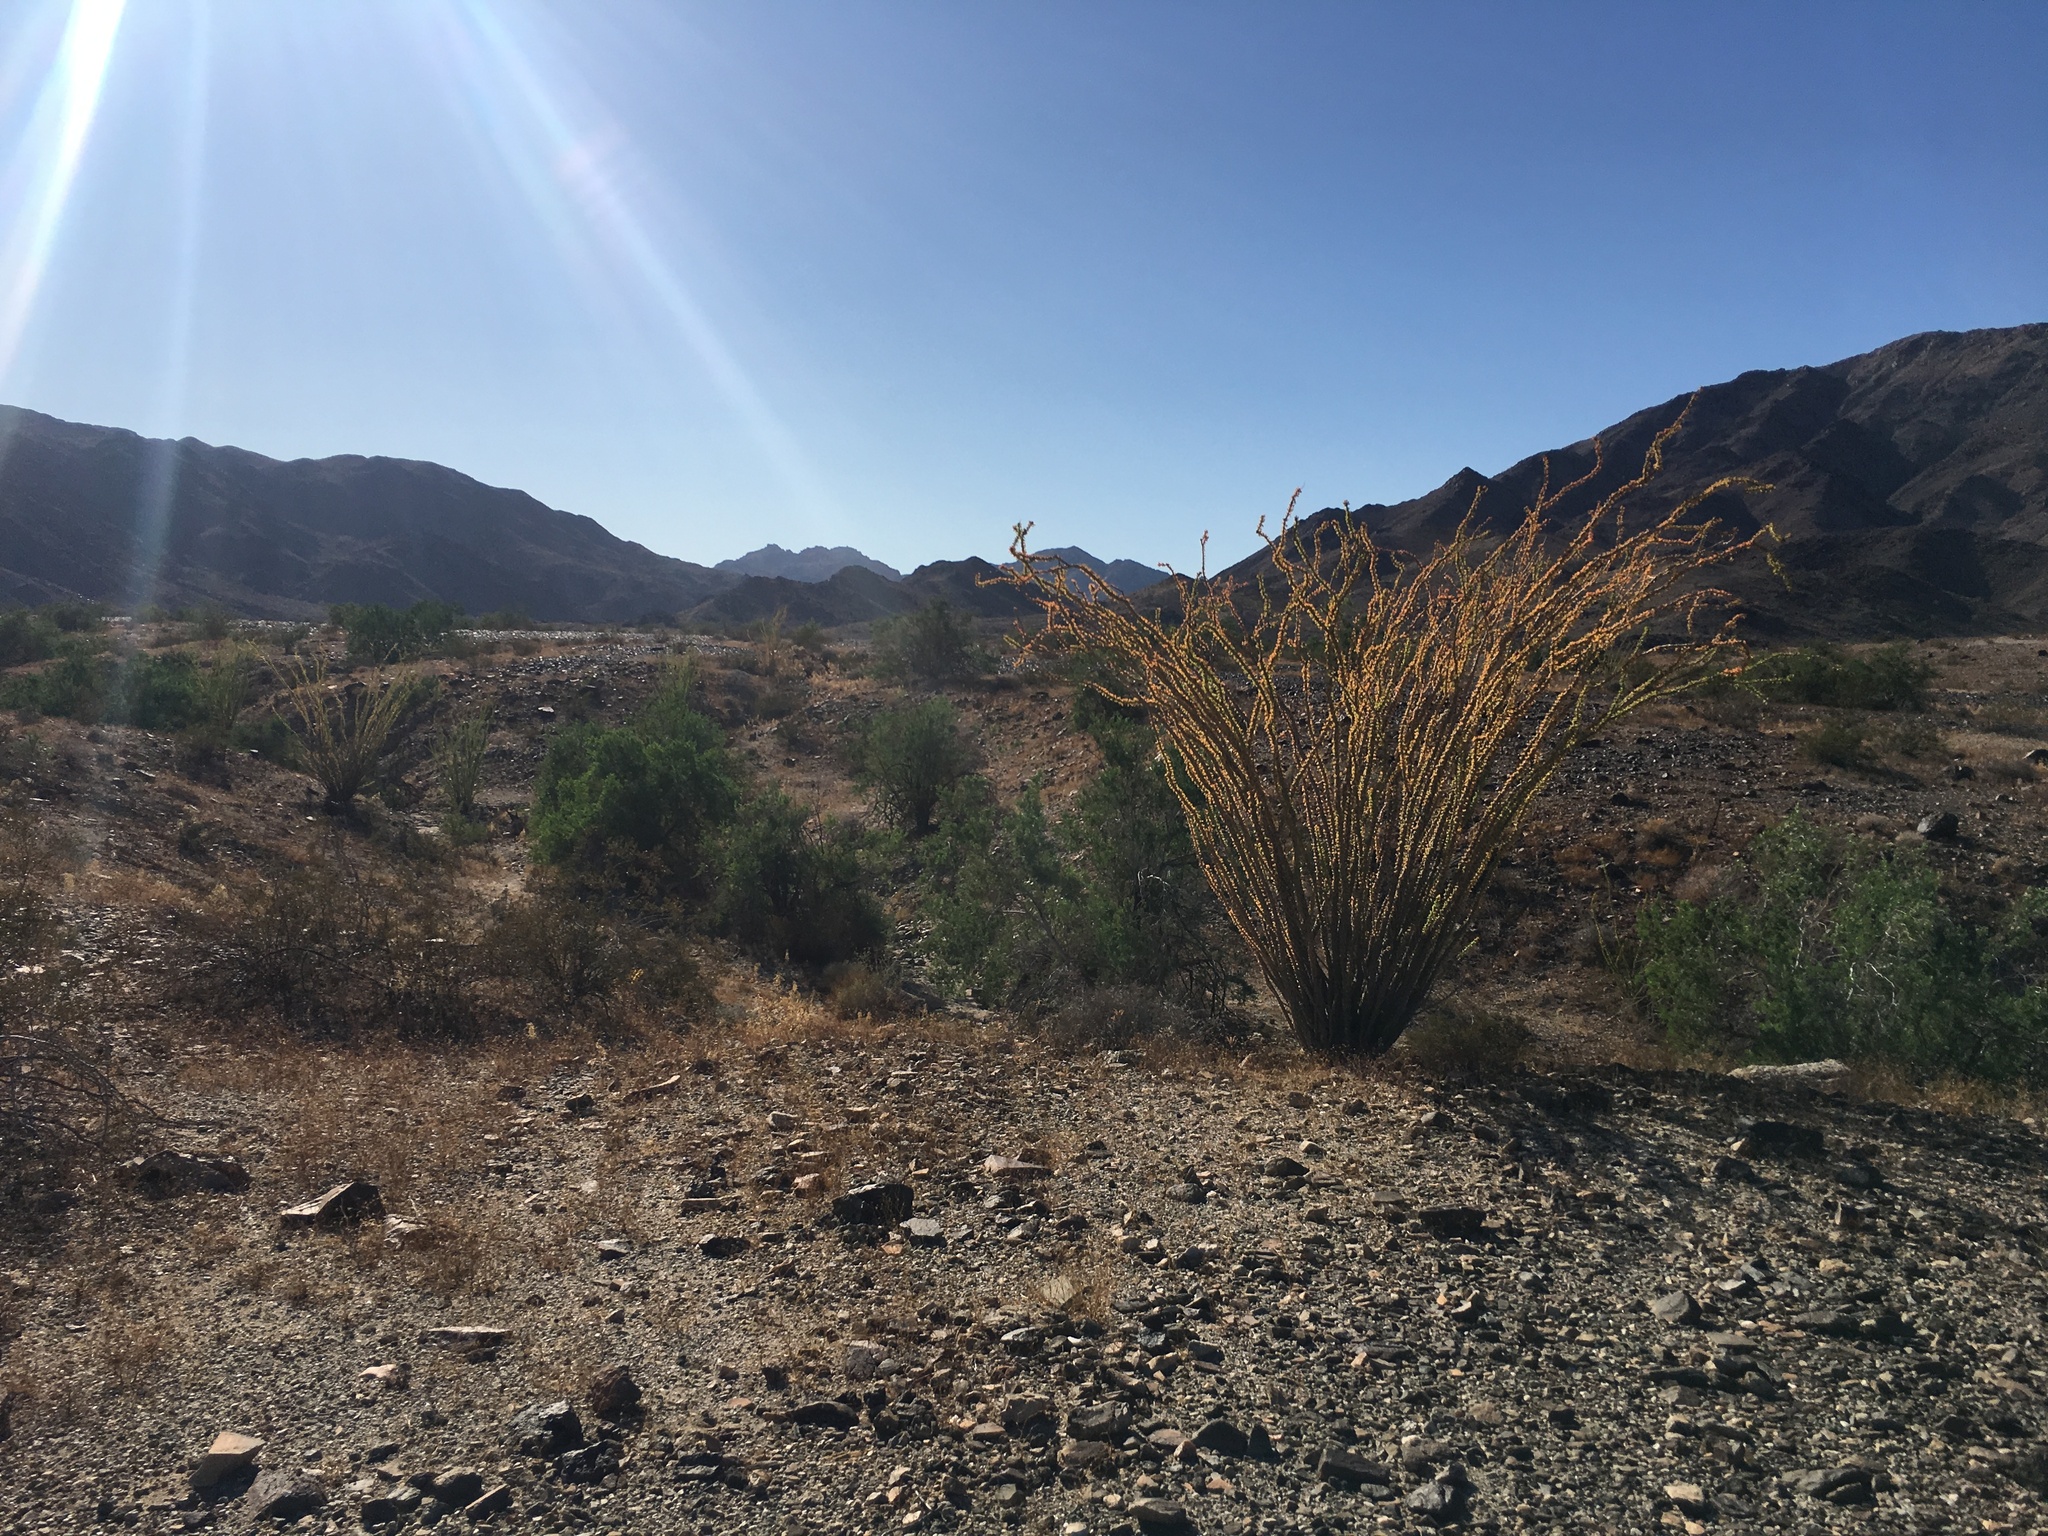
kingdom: Plantae
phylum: Tracheophyta
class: Magnoliopsida
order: Ericales
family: Fouquieriaceae
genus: Fouquieria
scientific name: Fouquieria splendens
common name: Vine-cactus
